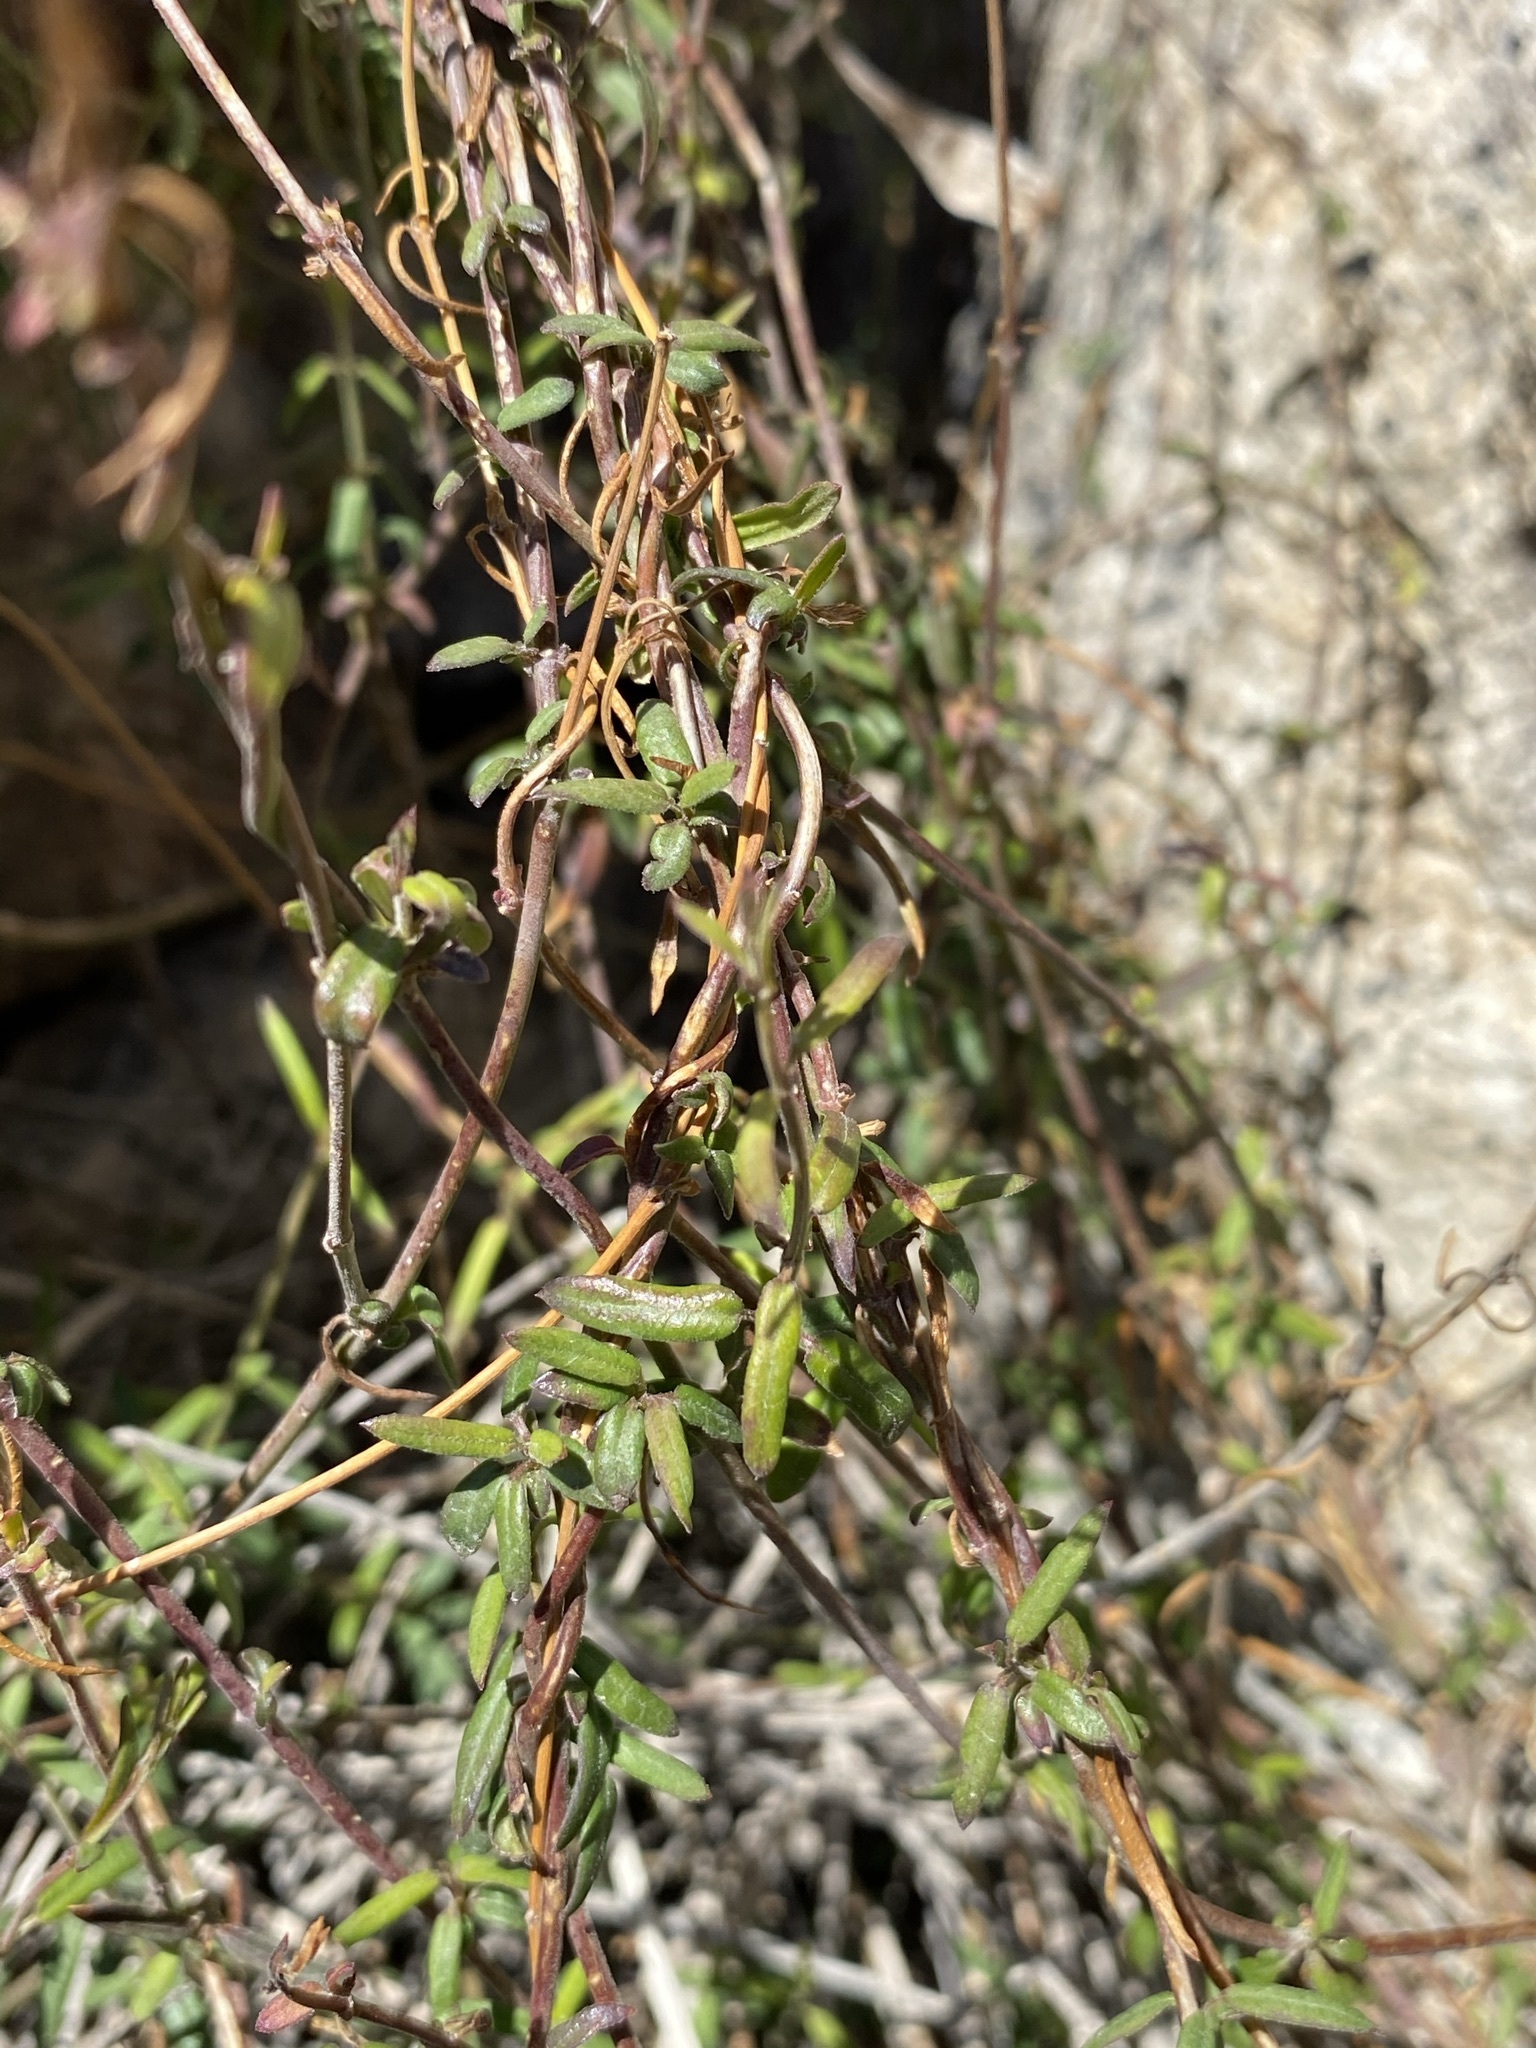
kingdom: Plantae
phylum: Tracheophyta
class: Magnoliopsida
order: Gentianales
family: Apocynaceae
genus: Metastelma
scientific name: Metastelma arizonicum
